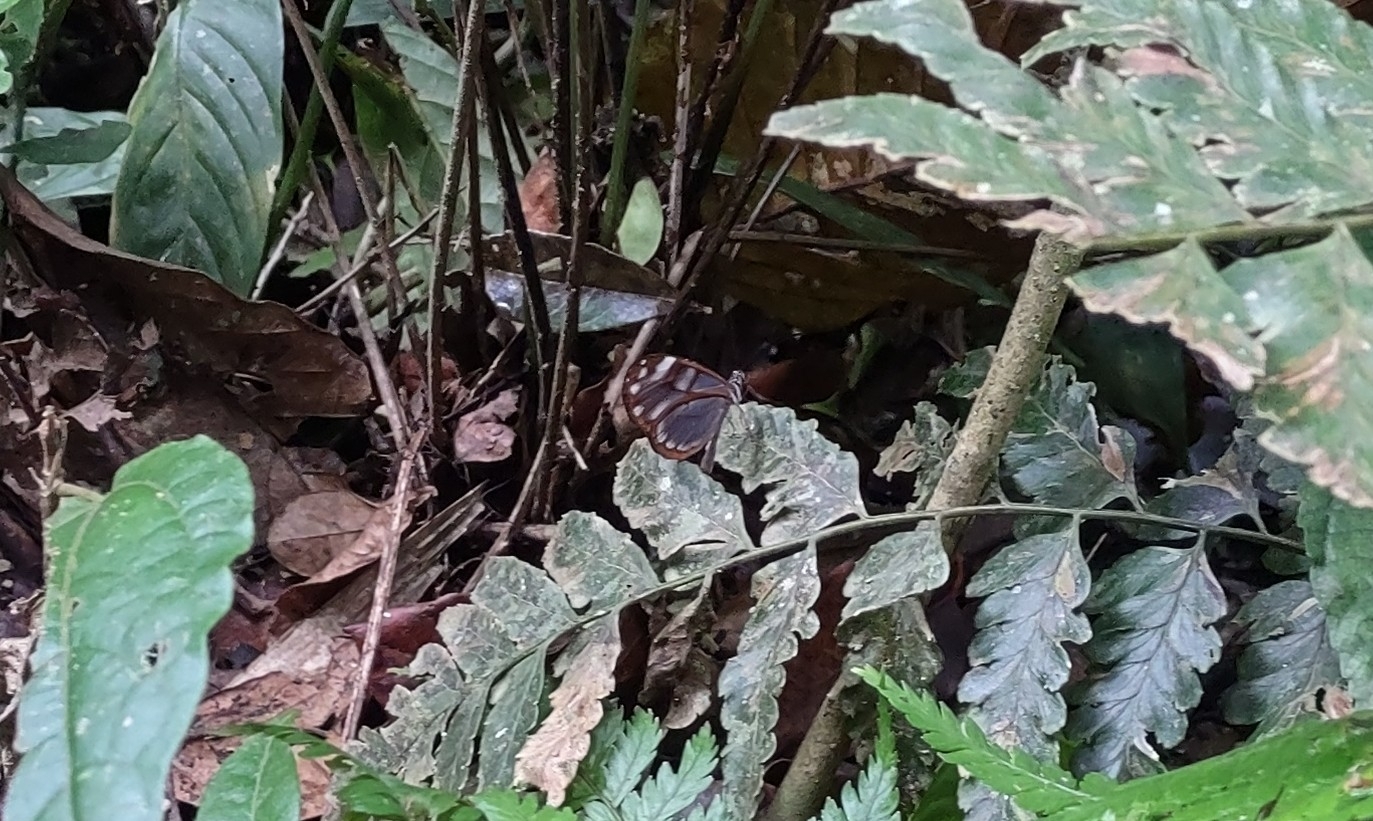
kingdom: Animalia
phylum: Arthropoda
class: Insecta
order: Lepidoptera
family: Nymphalidae
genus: Oleria
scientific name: Oleria vicina
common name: Vicina clearwing
